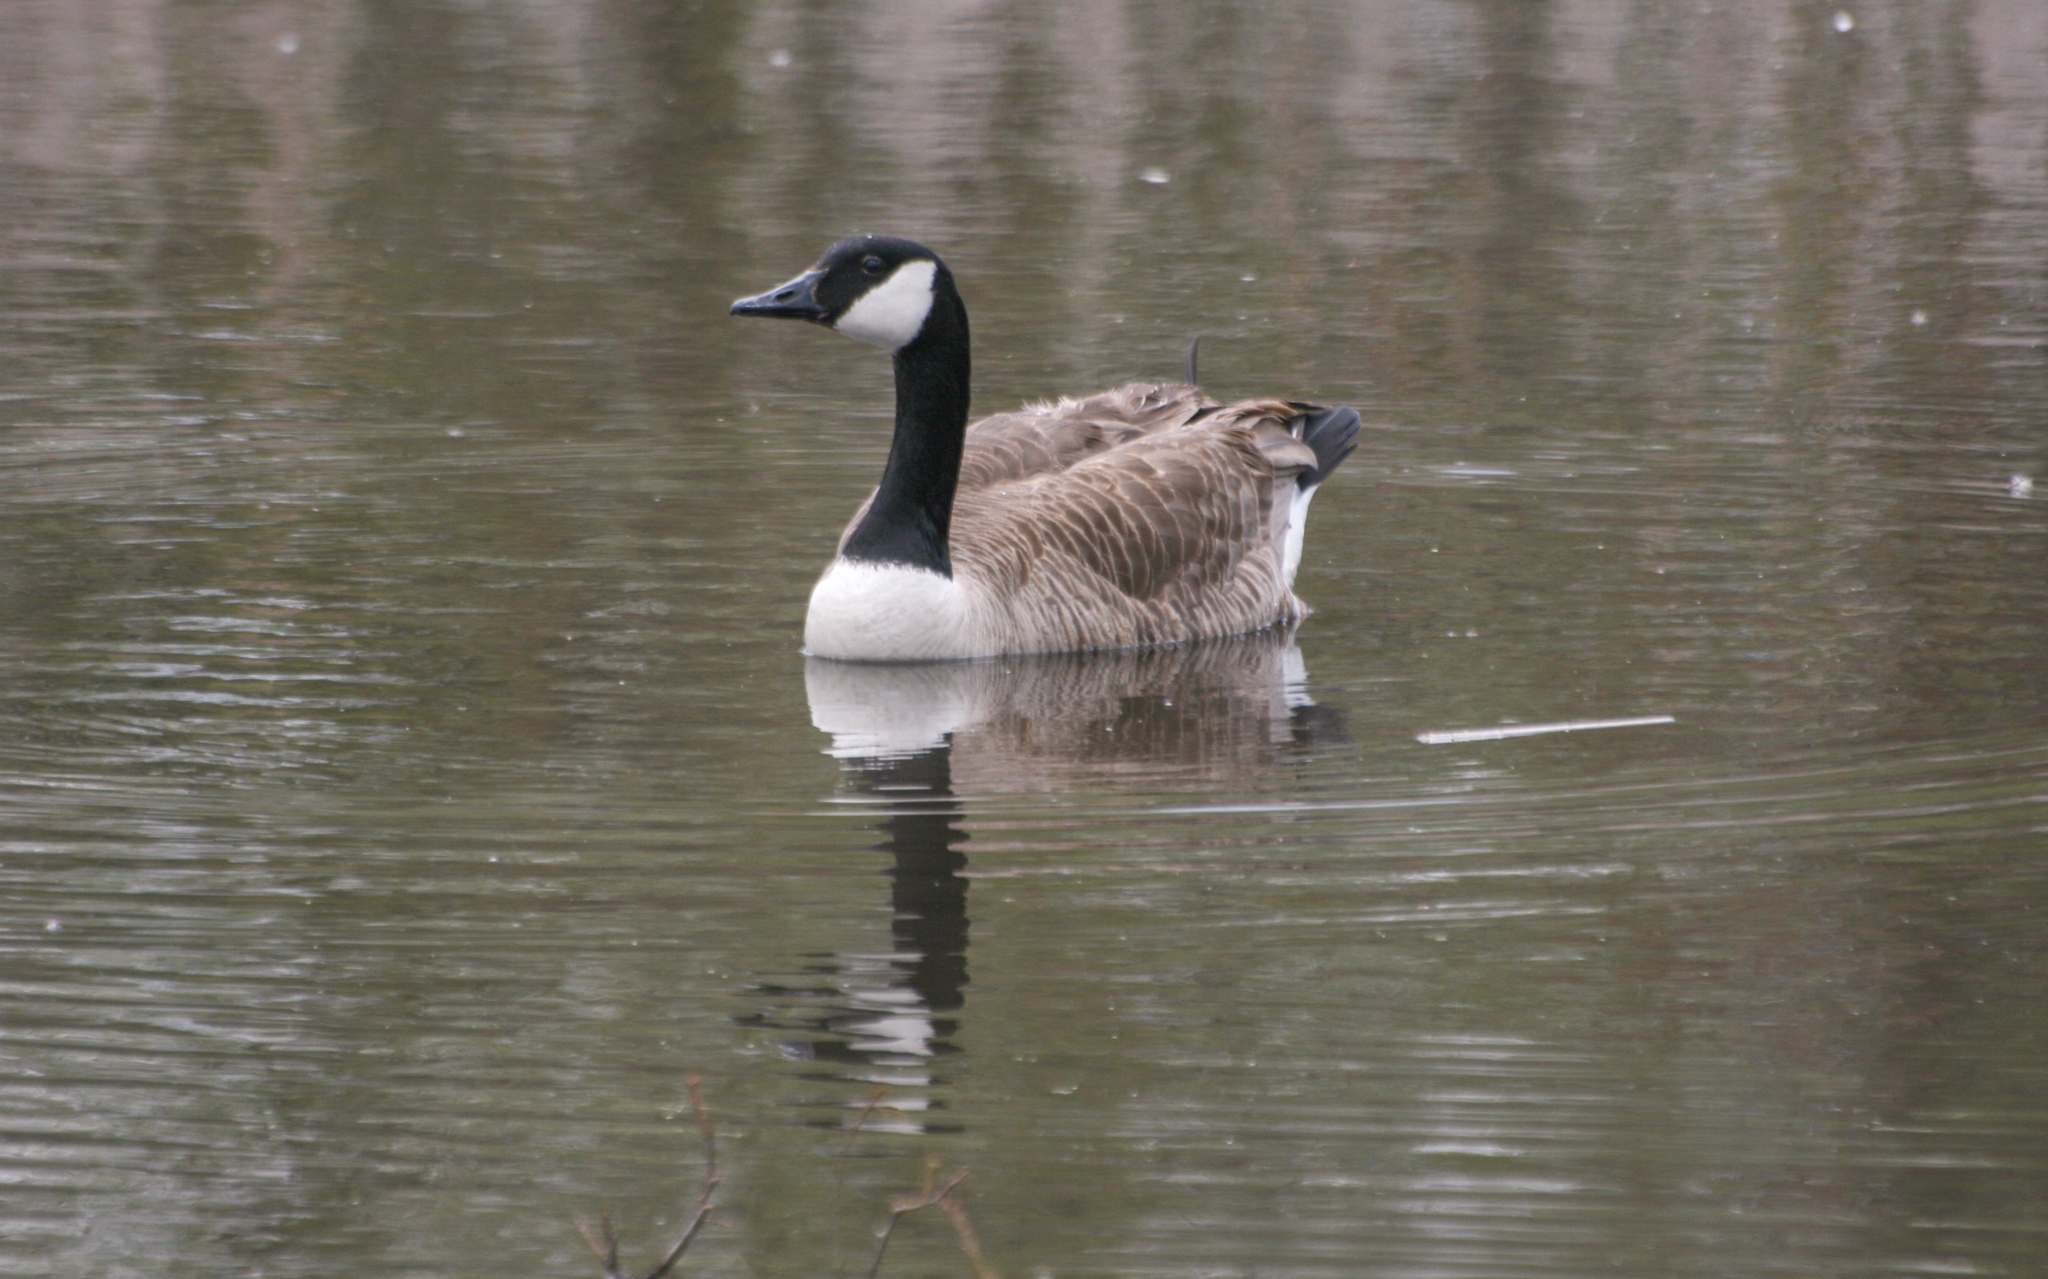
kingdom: Animalia
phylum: Chordata
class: Aves
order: Anseriformes
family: Anatidae
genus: Branta
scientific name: Branta canadensis
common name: Canada goose
